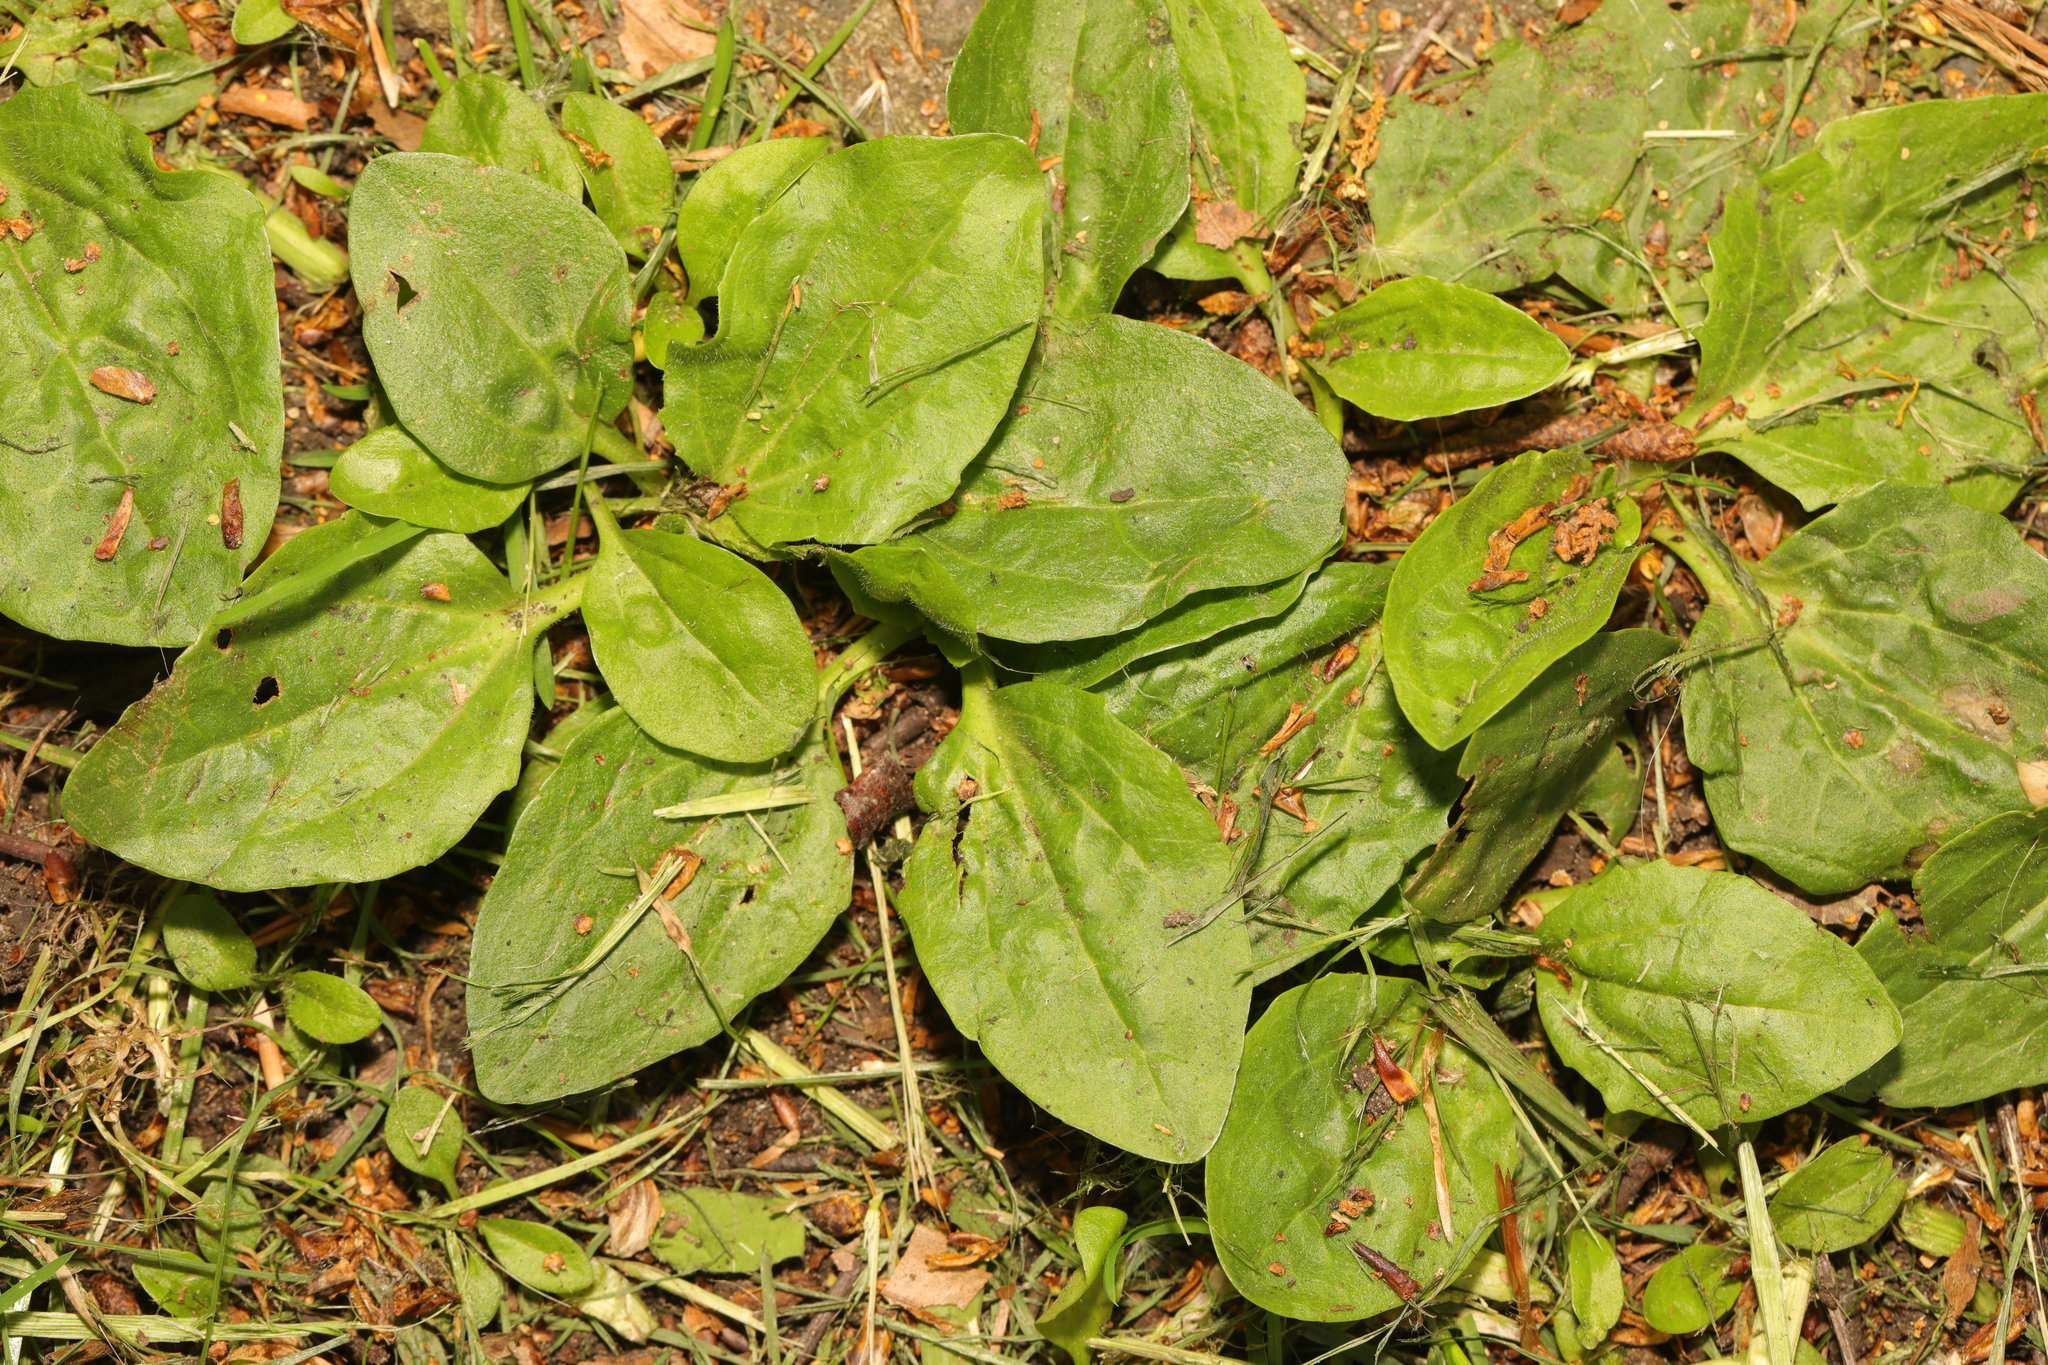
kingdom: Plantae
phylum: Tracheophyta
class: Magnoliopsida
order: Lamiales
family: Plantaginaceae
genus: Plantago
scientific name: Plantago major
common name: Common plantain
